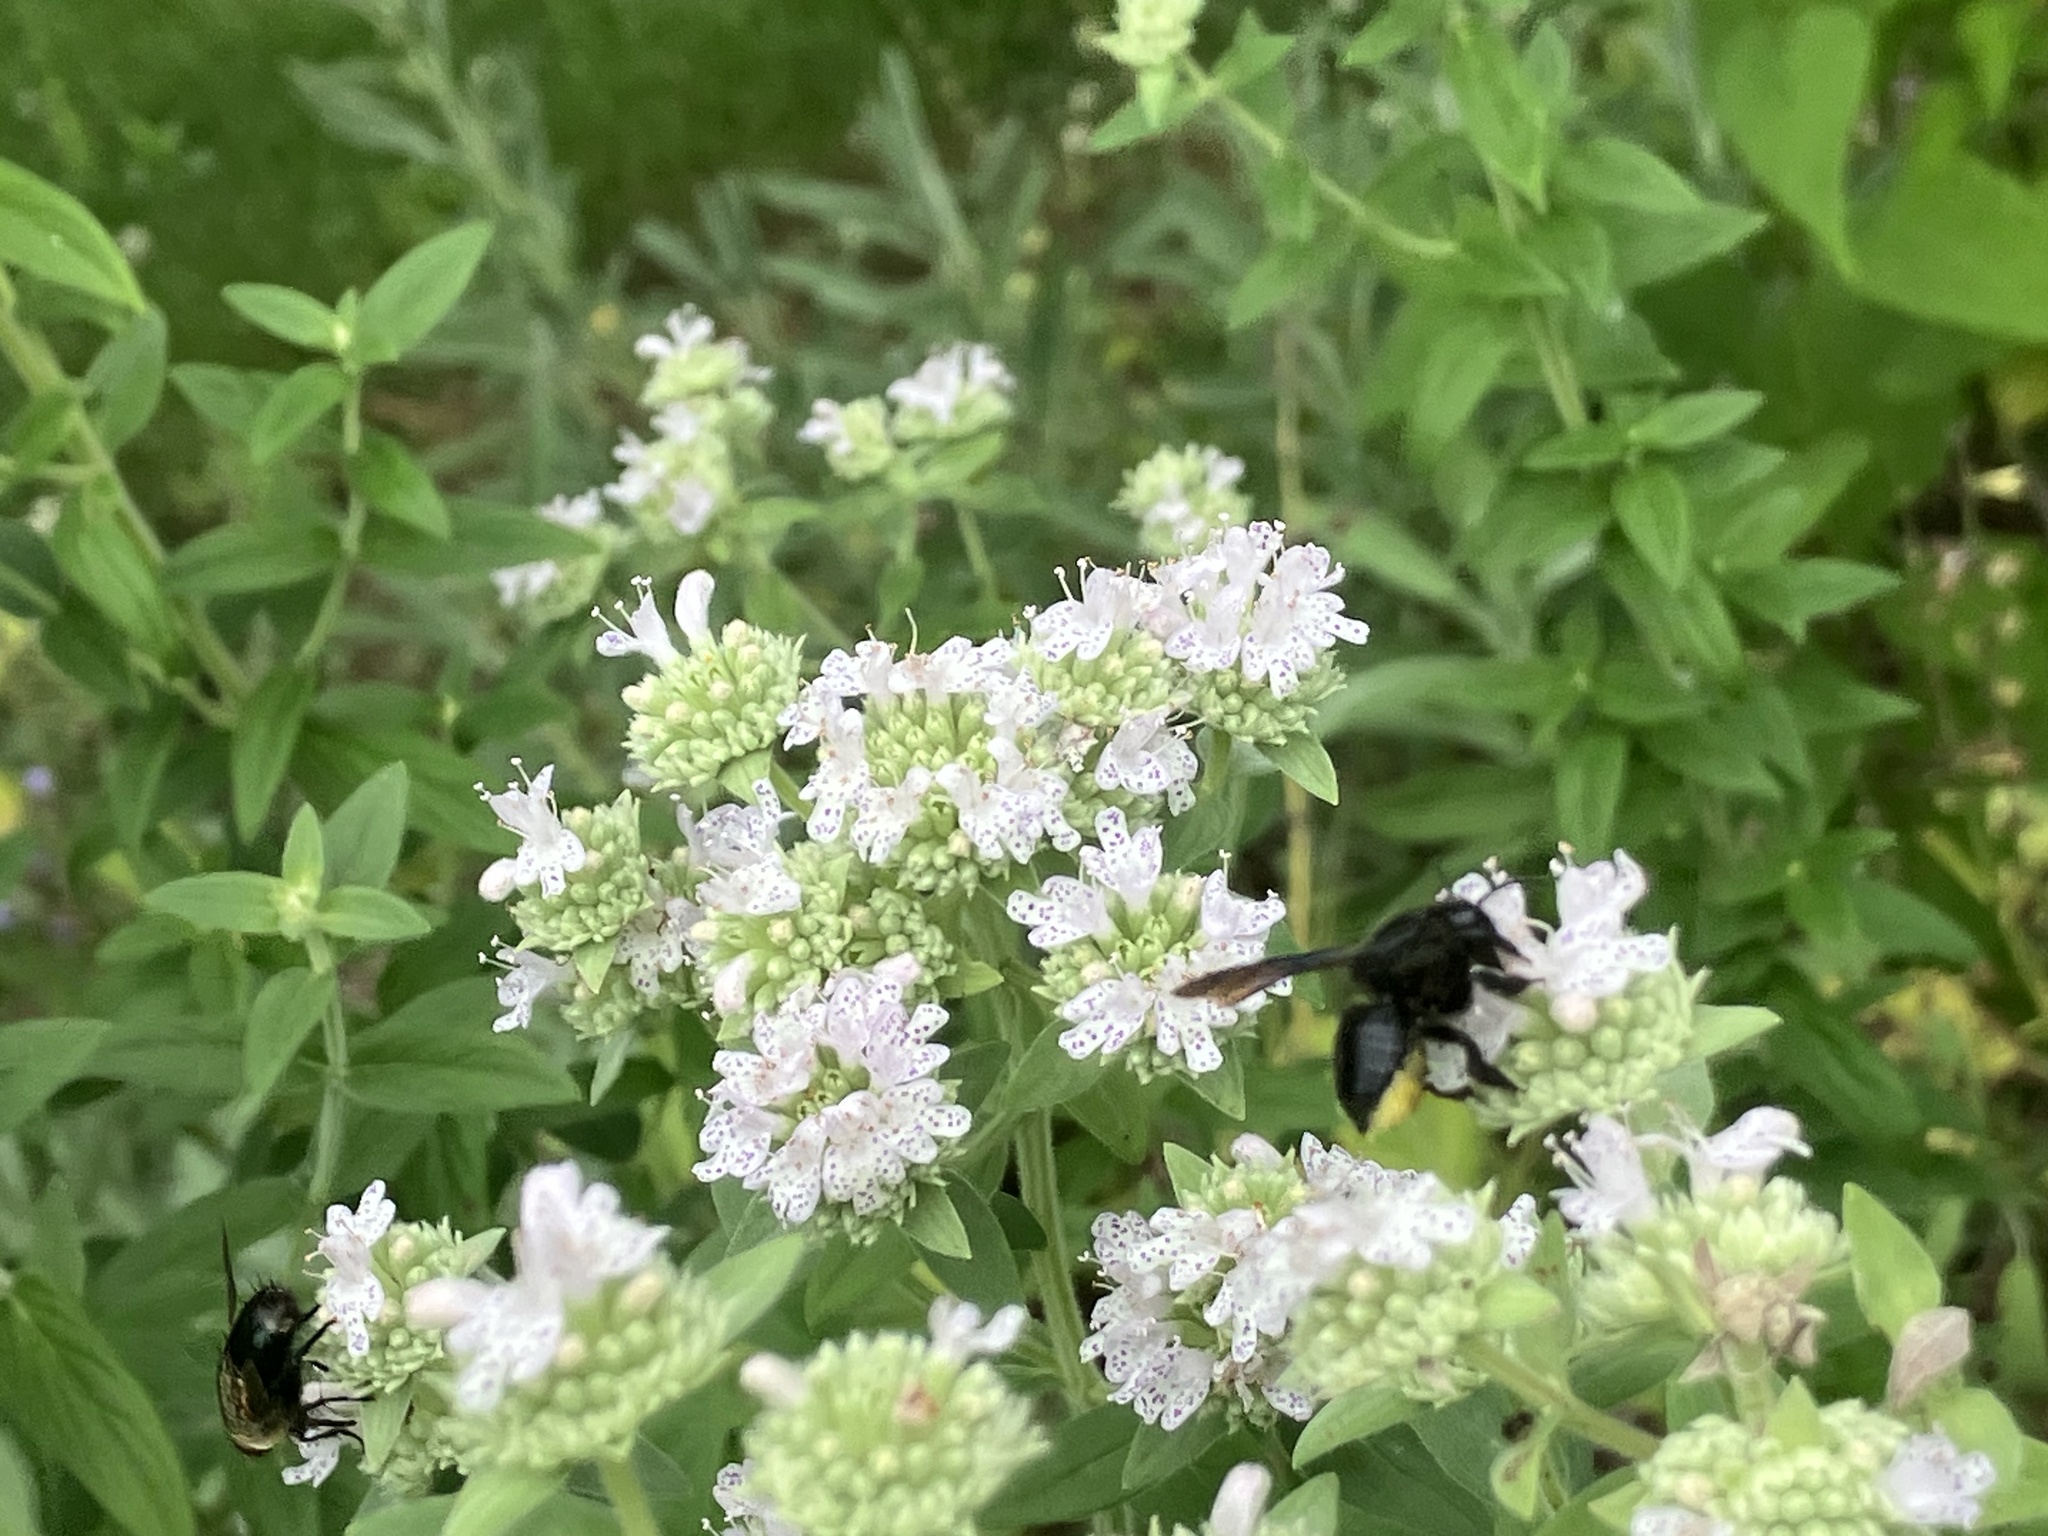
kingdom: Animalia
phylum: Arthropoda
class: Insecta
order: Hymenoptera
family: Megachilidae
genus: Megachile
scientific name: Megachile xylocopoides
